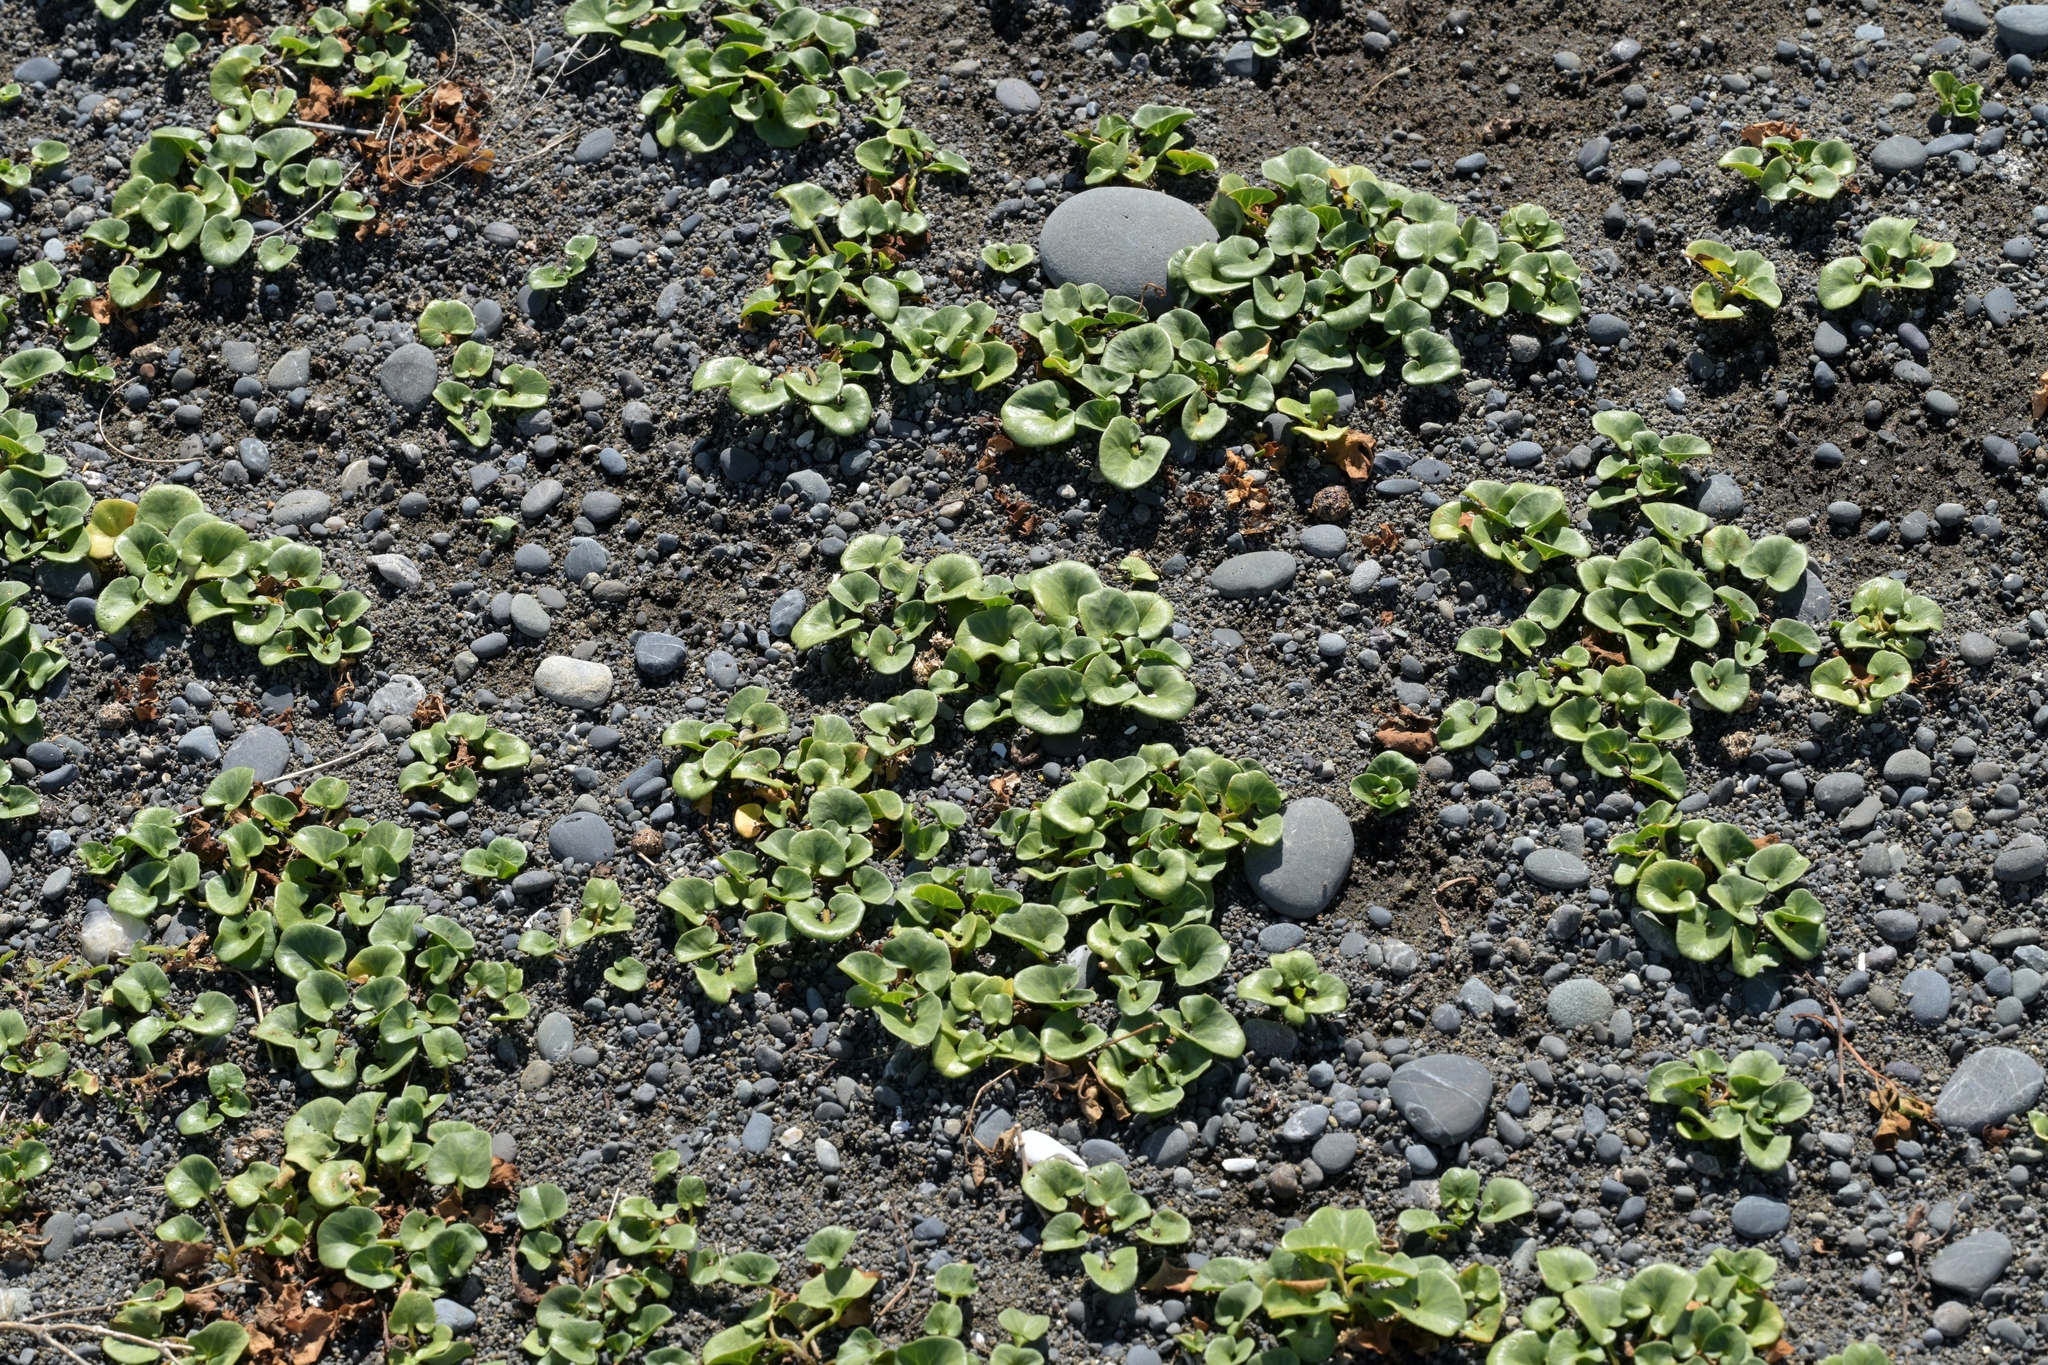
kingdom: Plantae
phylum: Tracheophyta
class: Magnoliopsida
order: Solanales
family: Convolvulaceae
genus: Calystegia
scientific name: Calystegia soldanella
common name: Sea bindweed
